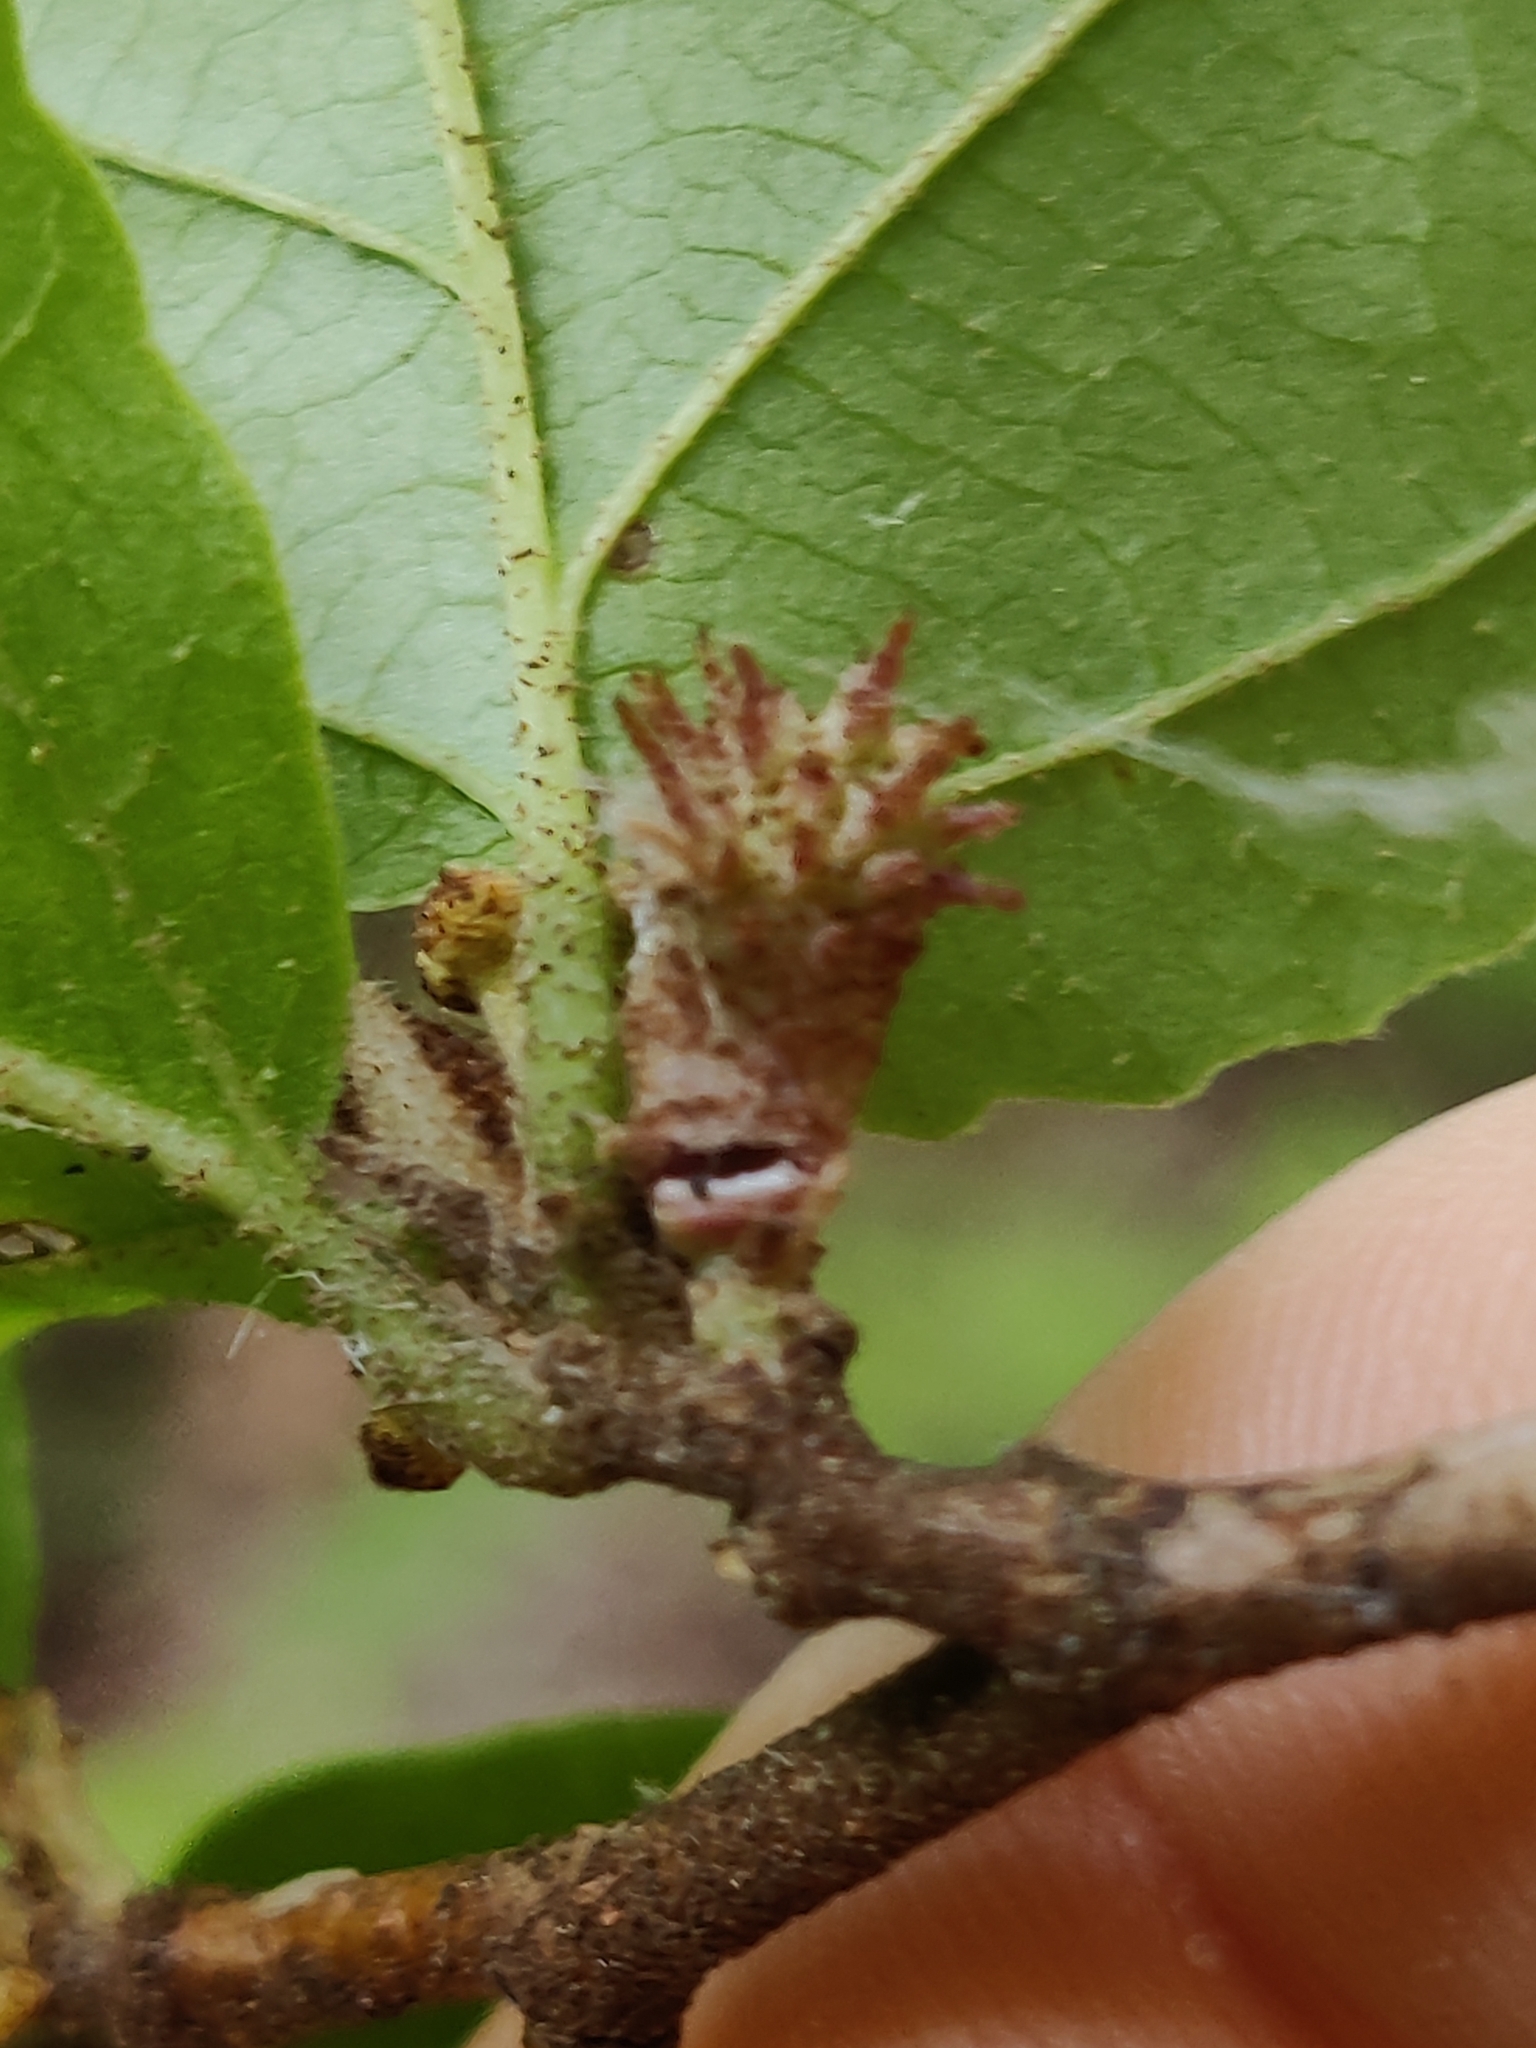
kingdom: Animalia
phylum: Arthropoda
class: Insecta
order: Hemiptera
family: Aphididae
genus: Hamamelistes
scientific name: Hamamelistes spinosus
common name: Witch hazel gall aphid
